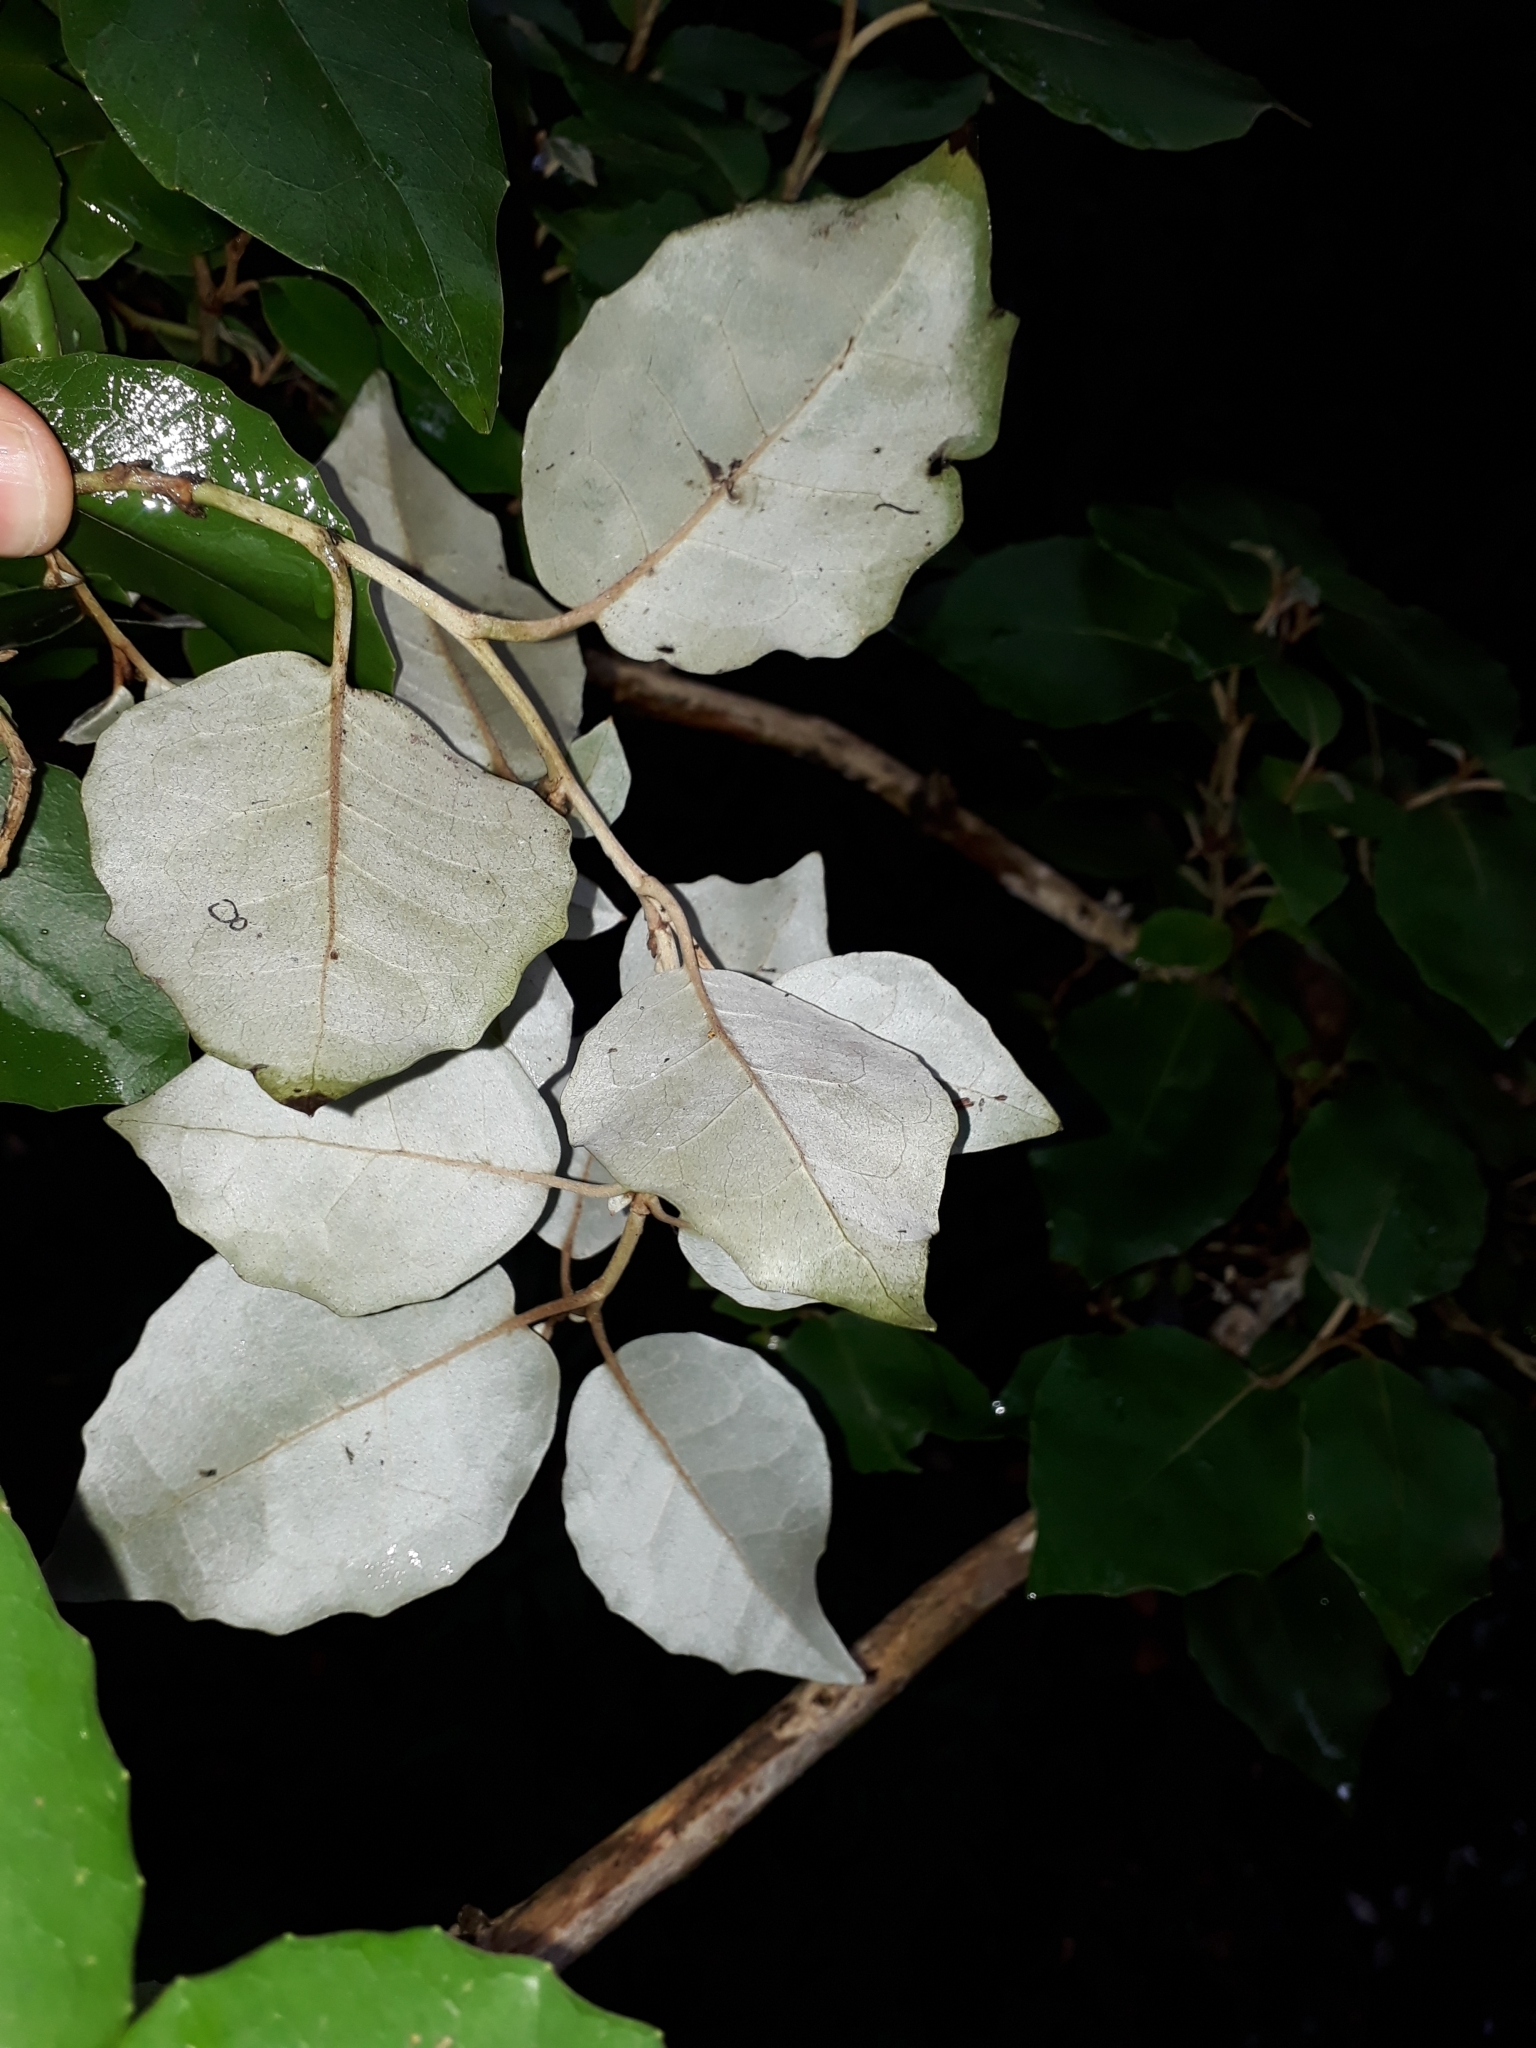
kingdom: Plantae
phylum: Tracheophyta
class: Magnoliopsida
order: Asterales
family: Asteraceae
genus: Olearia
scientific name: Olearia arborescens
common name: Glossy tree daisy
